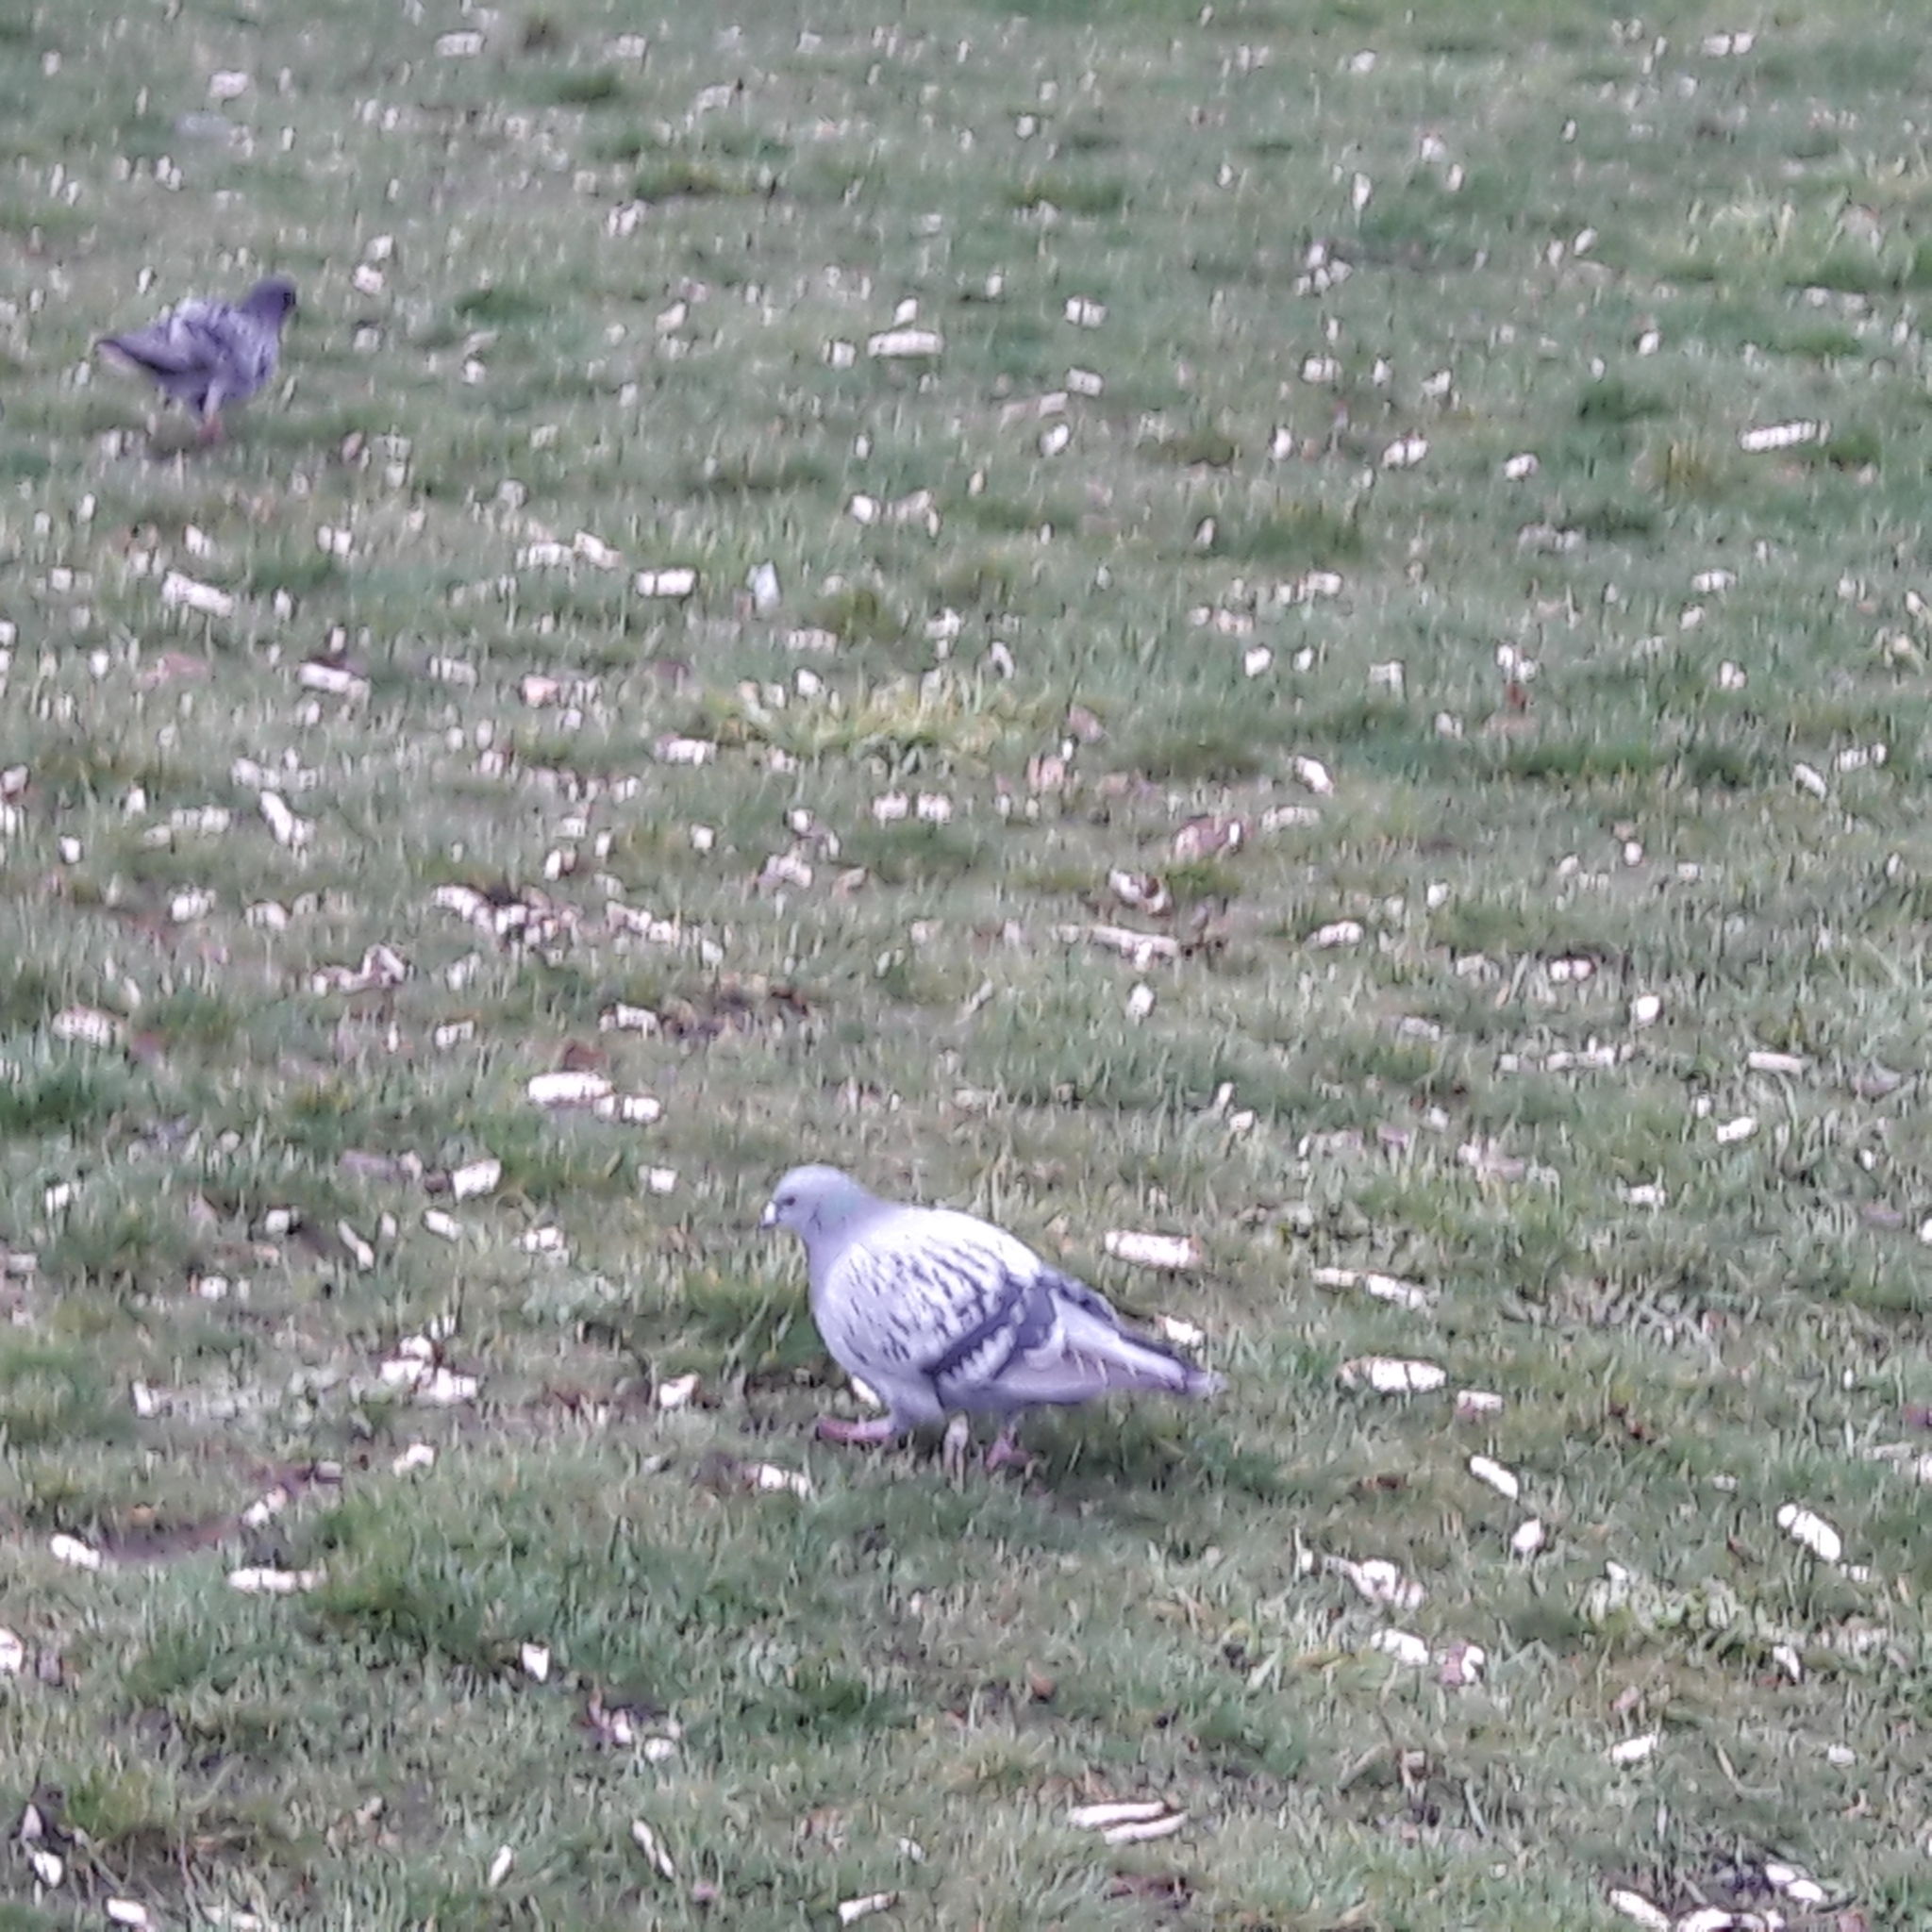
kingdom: Animalia
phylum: Chordata
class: Aves
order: Columbiformes
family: Columbidae
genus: Columba
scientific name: Columba livia
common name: Rock pigeon
